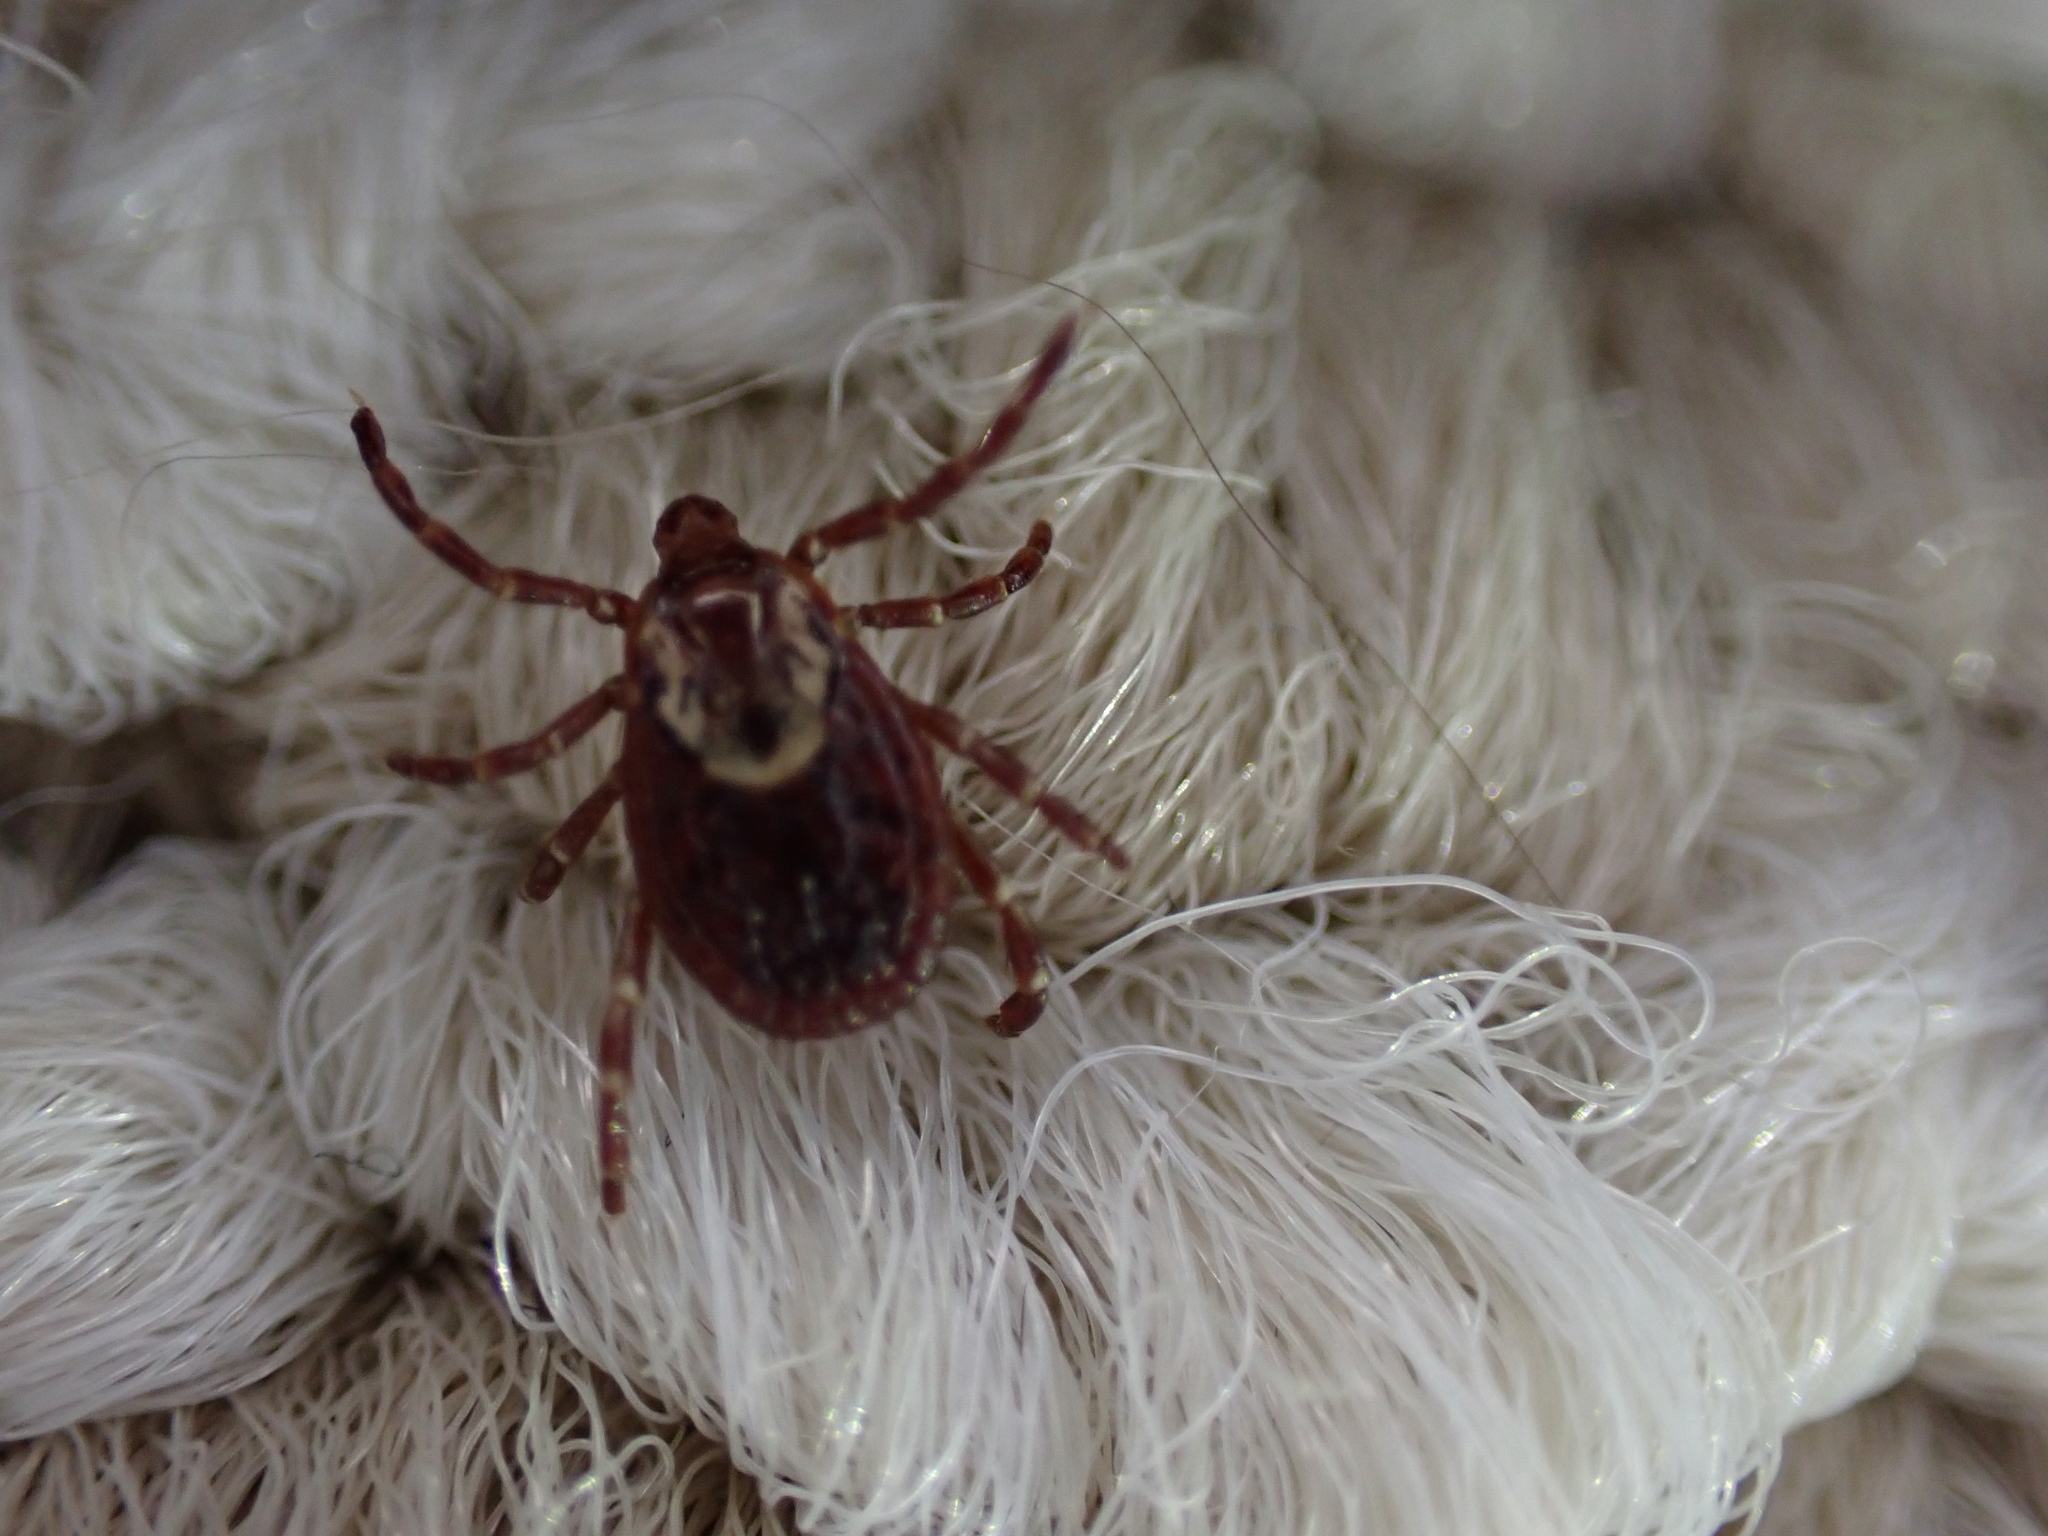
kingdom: Animalia
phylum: Arthropoda
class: Arachnida
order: Ixodida
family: Ixodidae
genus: Dermacentor
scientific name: Dermacentor variabilis
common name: American dog tick
